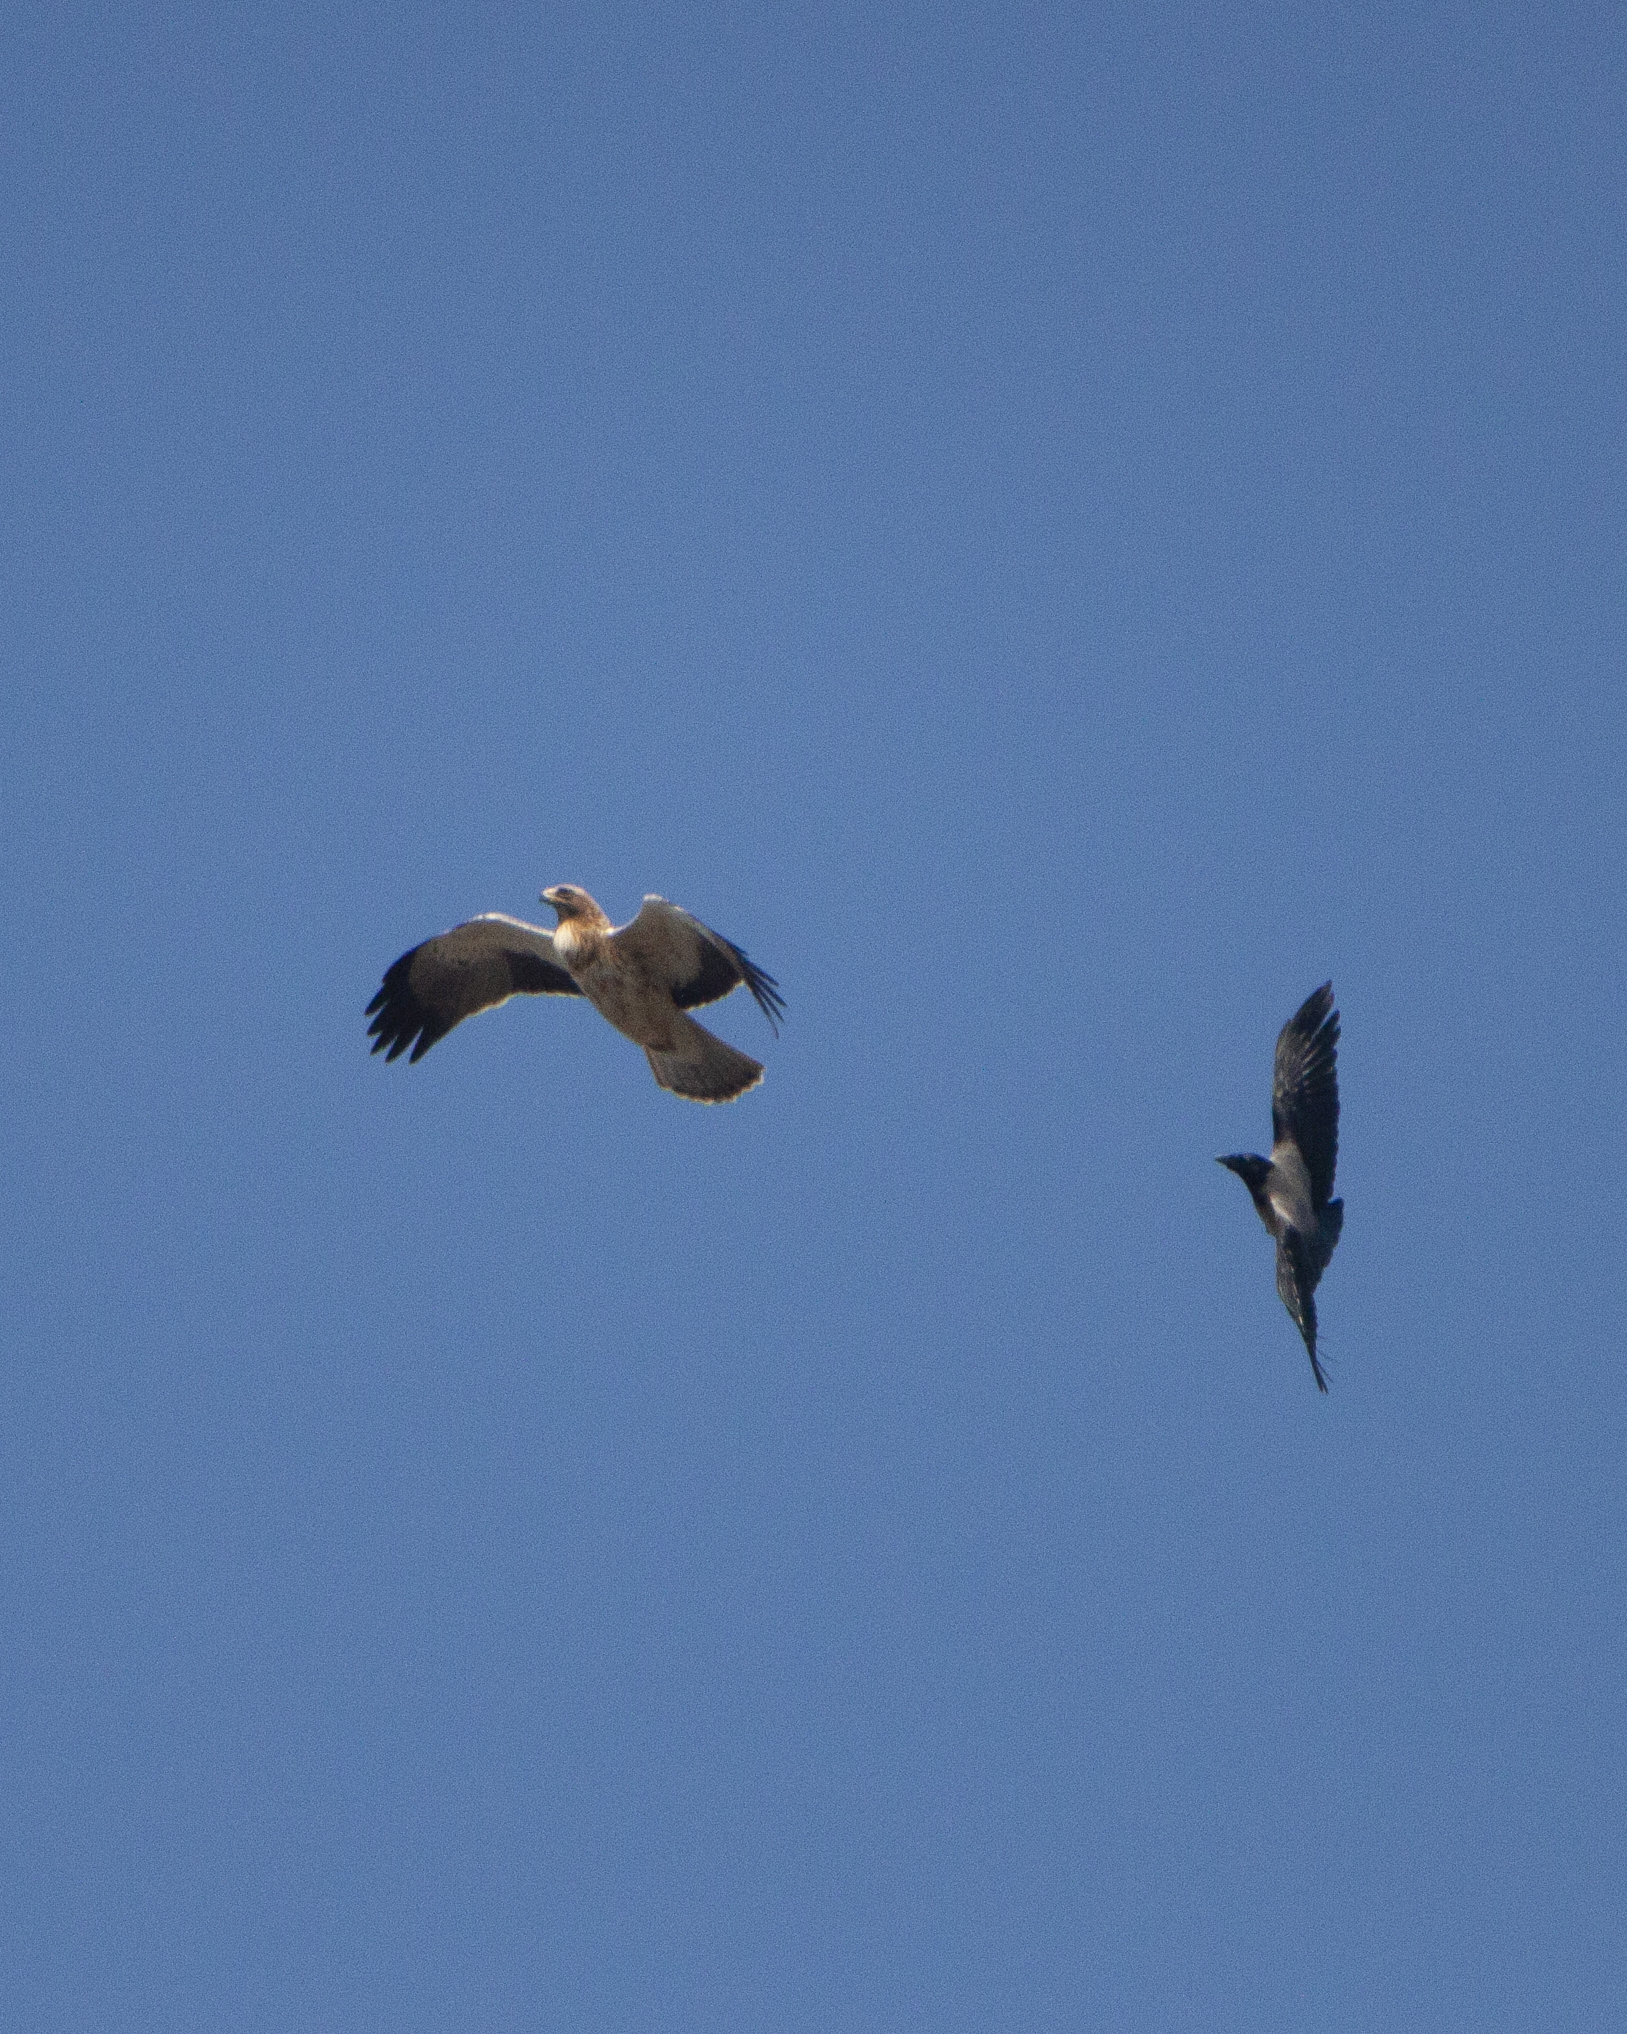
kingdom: Animalia
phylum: Chordata
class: Aves
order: Accipitriformes
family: Accipitridae
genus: Hieraaetus
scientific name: Hieraaetus pennatus
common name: Booted eagle
